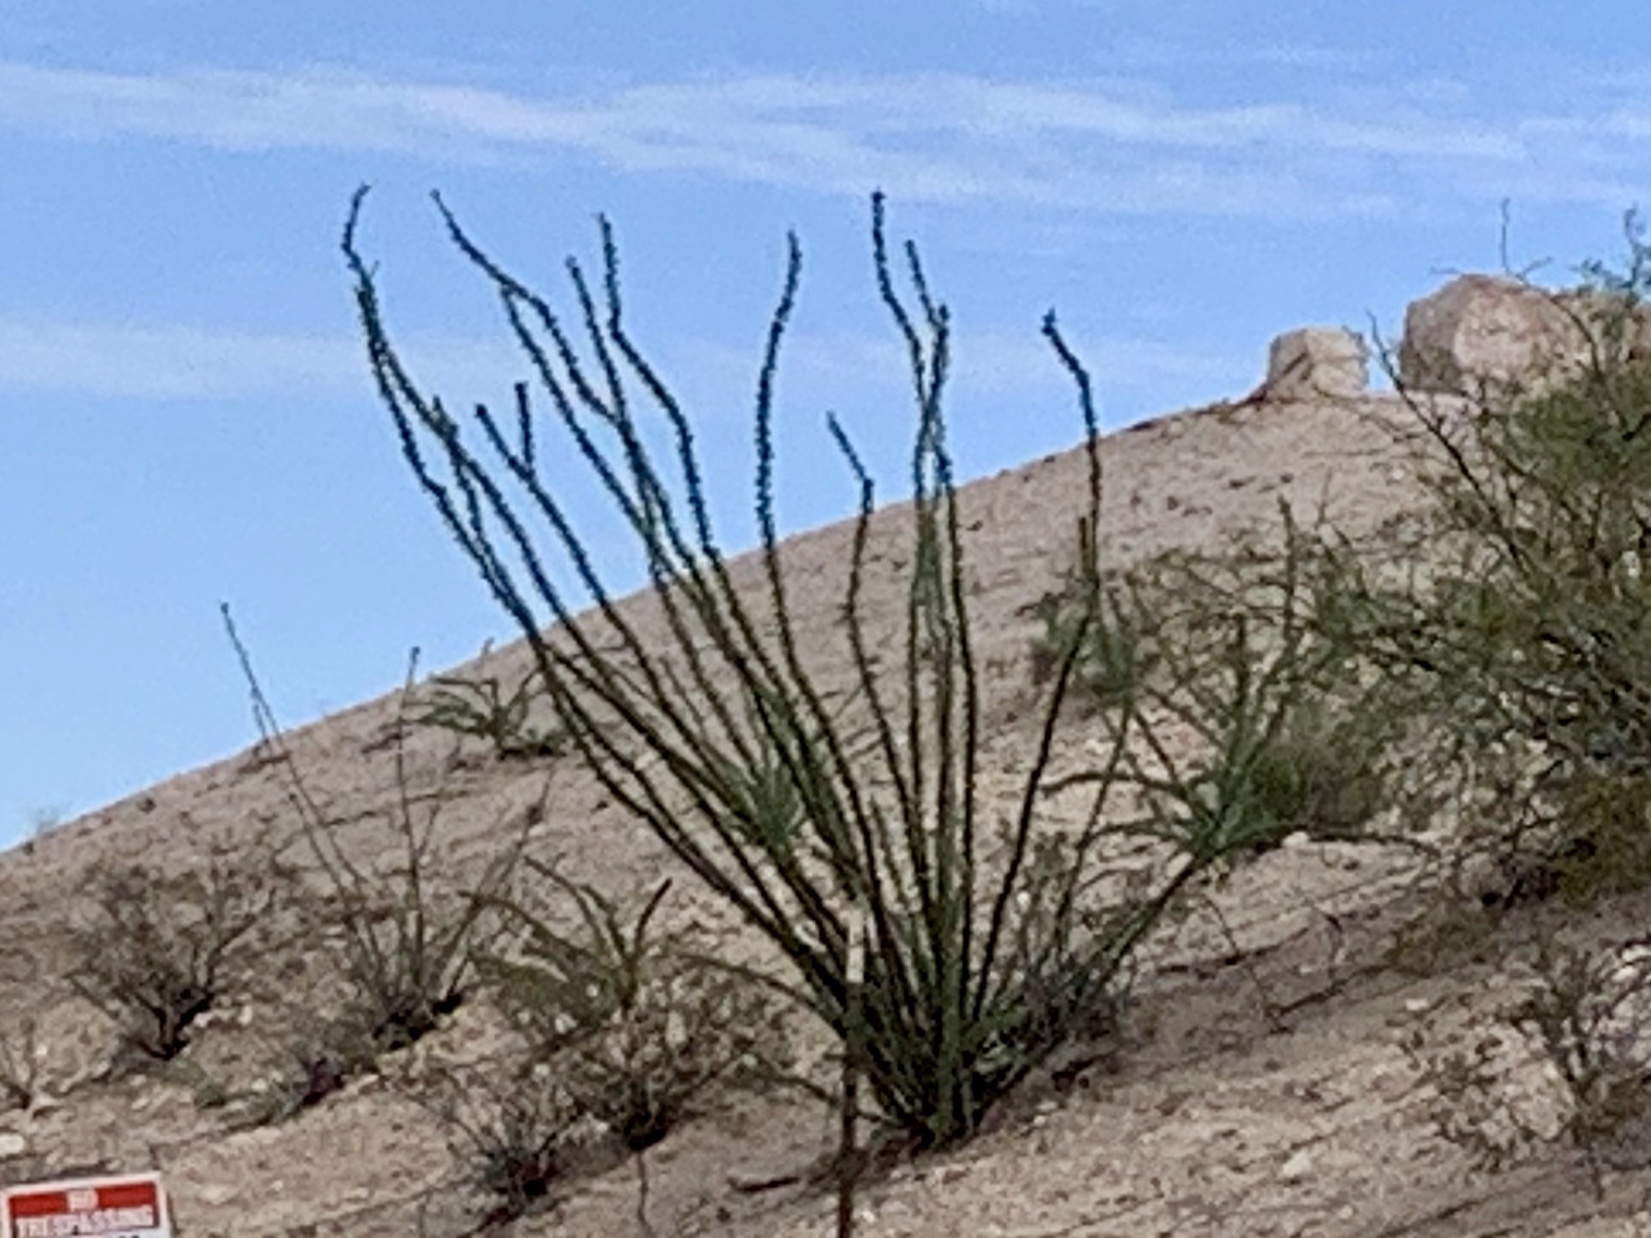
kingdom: Plantae
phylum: Tracheophyta
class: Magnoliopsida
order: Ericales
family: Fouquieriaceae
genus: Fouquieria
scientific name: Fouquieria splendens
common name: Vine-cactus
